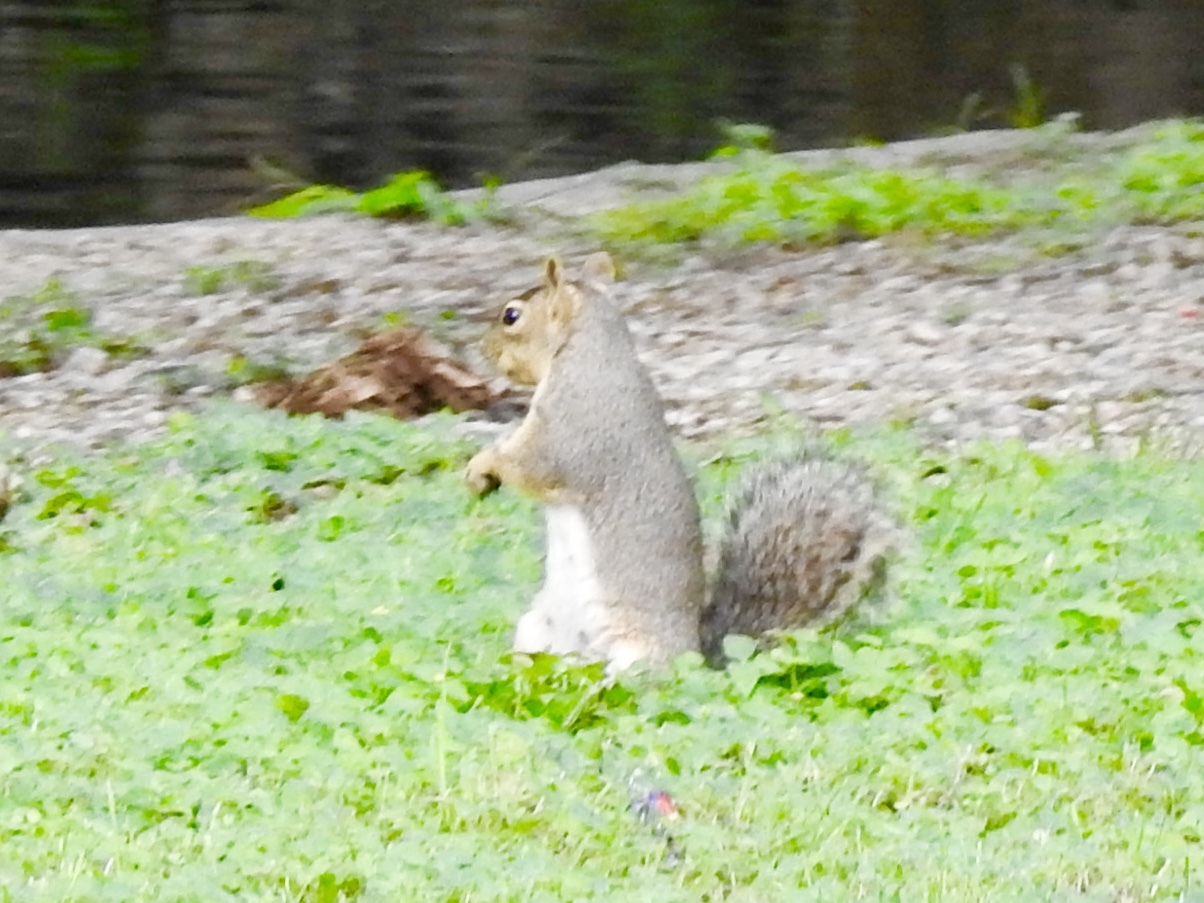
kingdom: Animalia
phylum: Chordata
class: Mammalia
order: Rodentia
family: Sciuridae
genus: Sciurus
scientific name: Sciurus niger
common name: Fox squirrel
